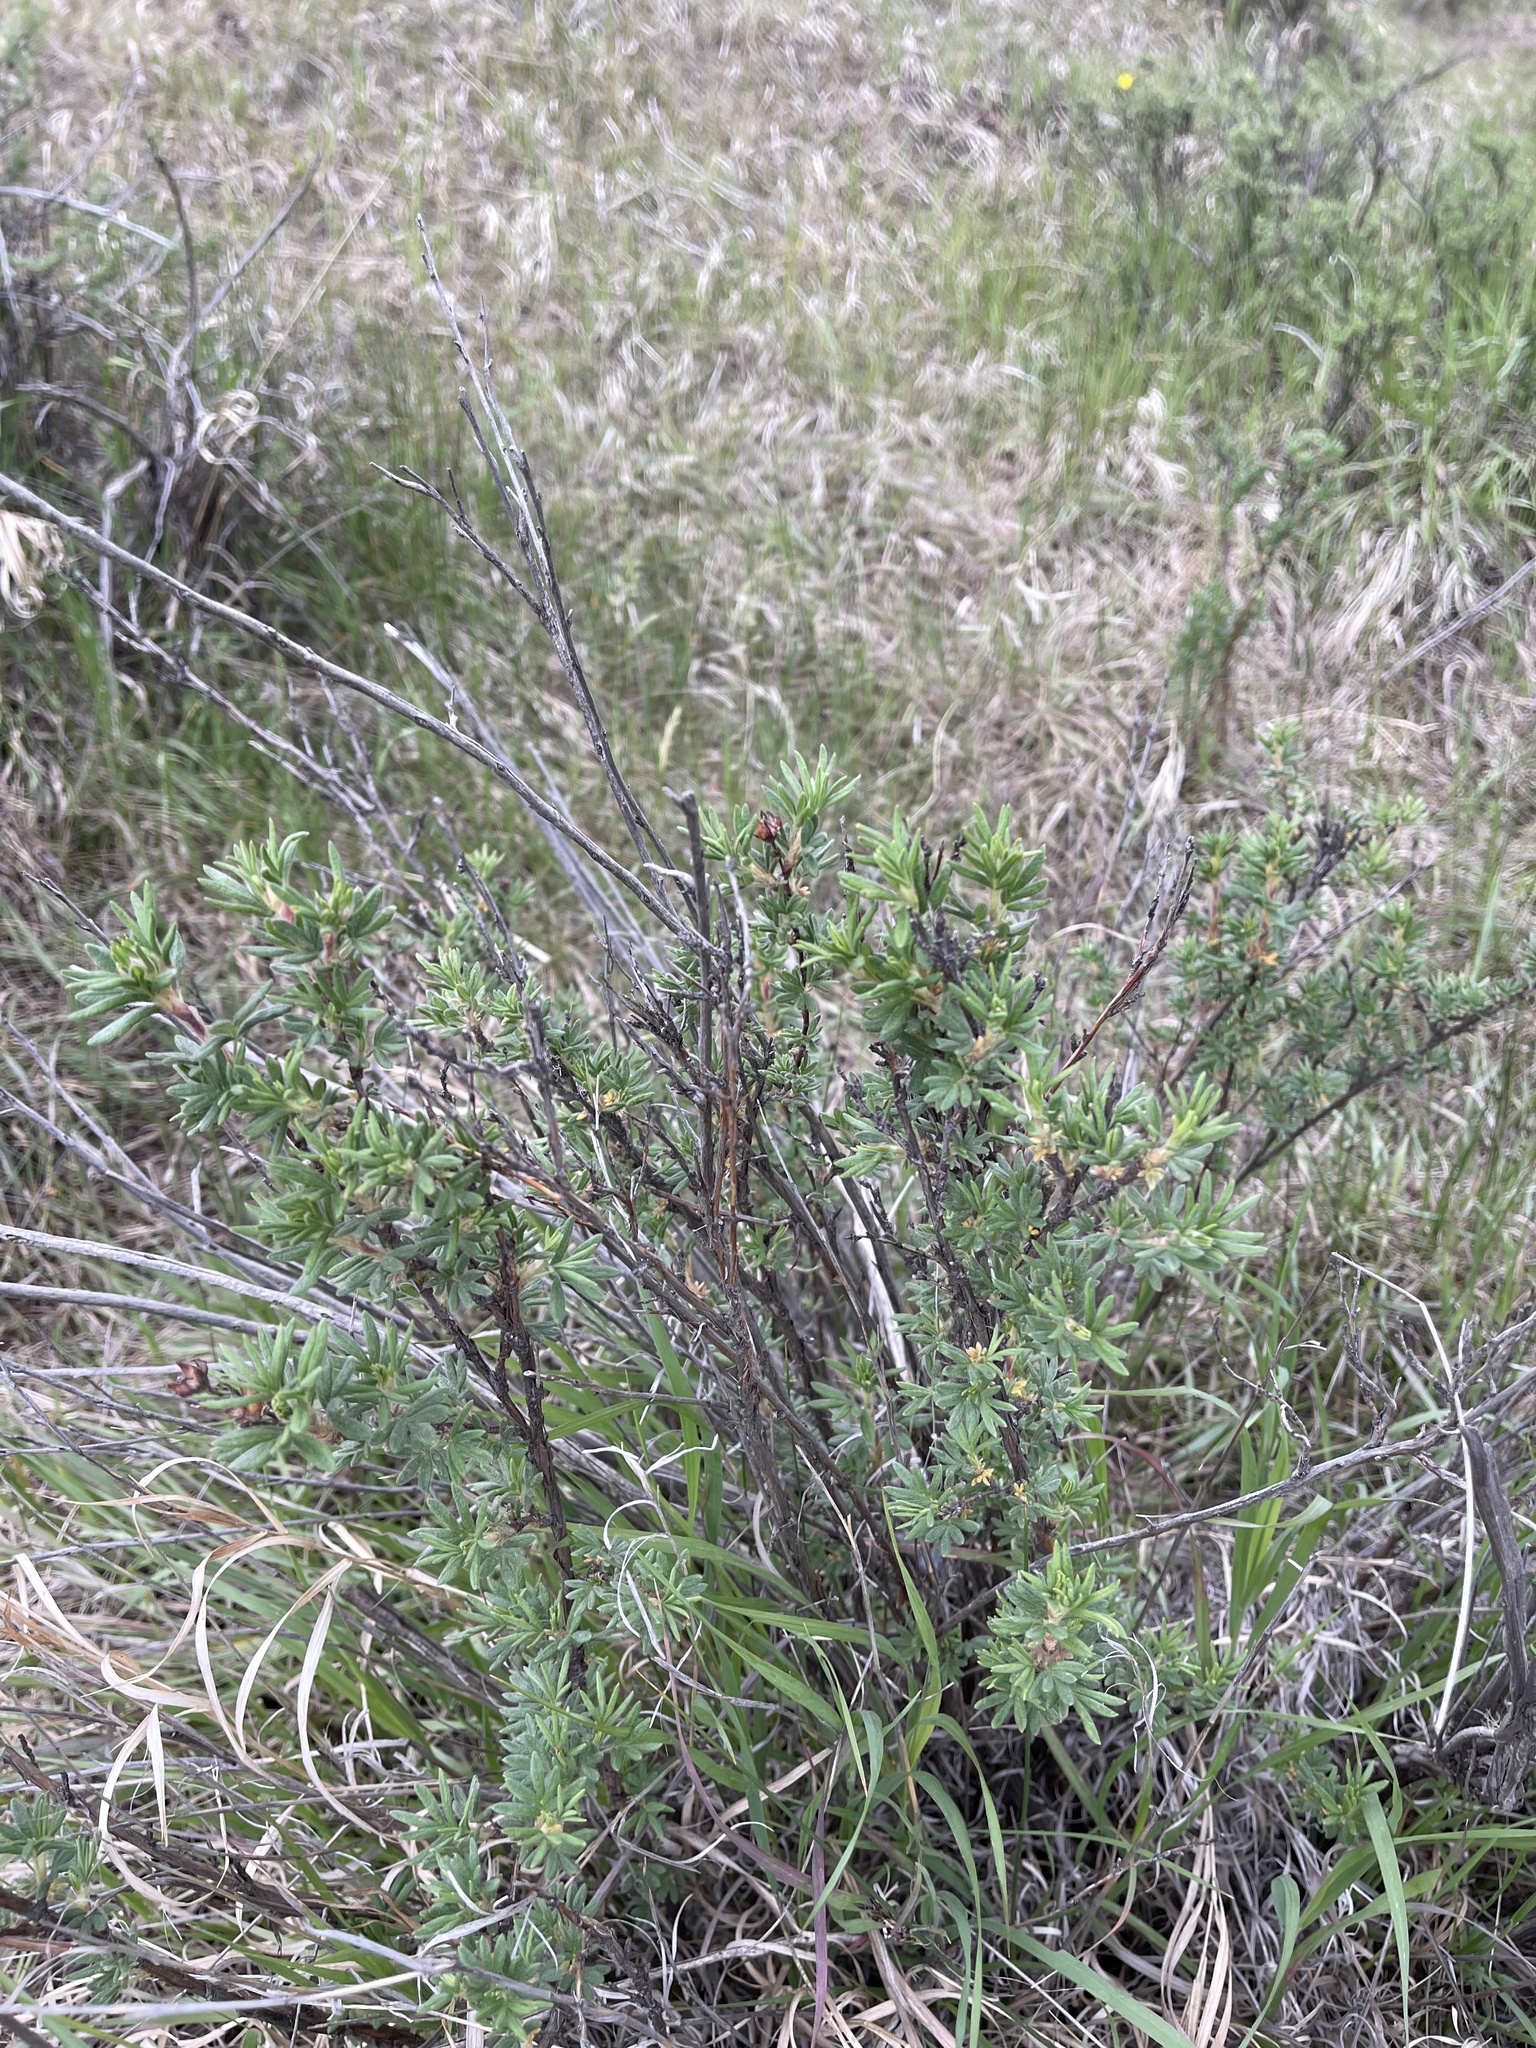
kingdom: Plantae
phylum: Tracheophyta
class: Magnoliopsida
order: Rosales
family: Rosaceae
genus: Dasiphora
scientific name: Dasiphora fruticosa
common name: Shrubby cinquefoil
